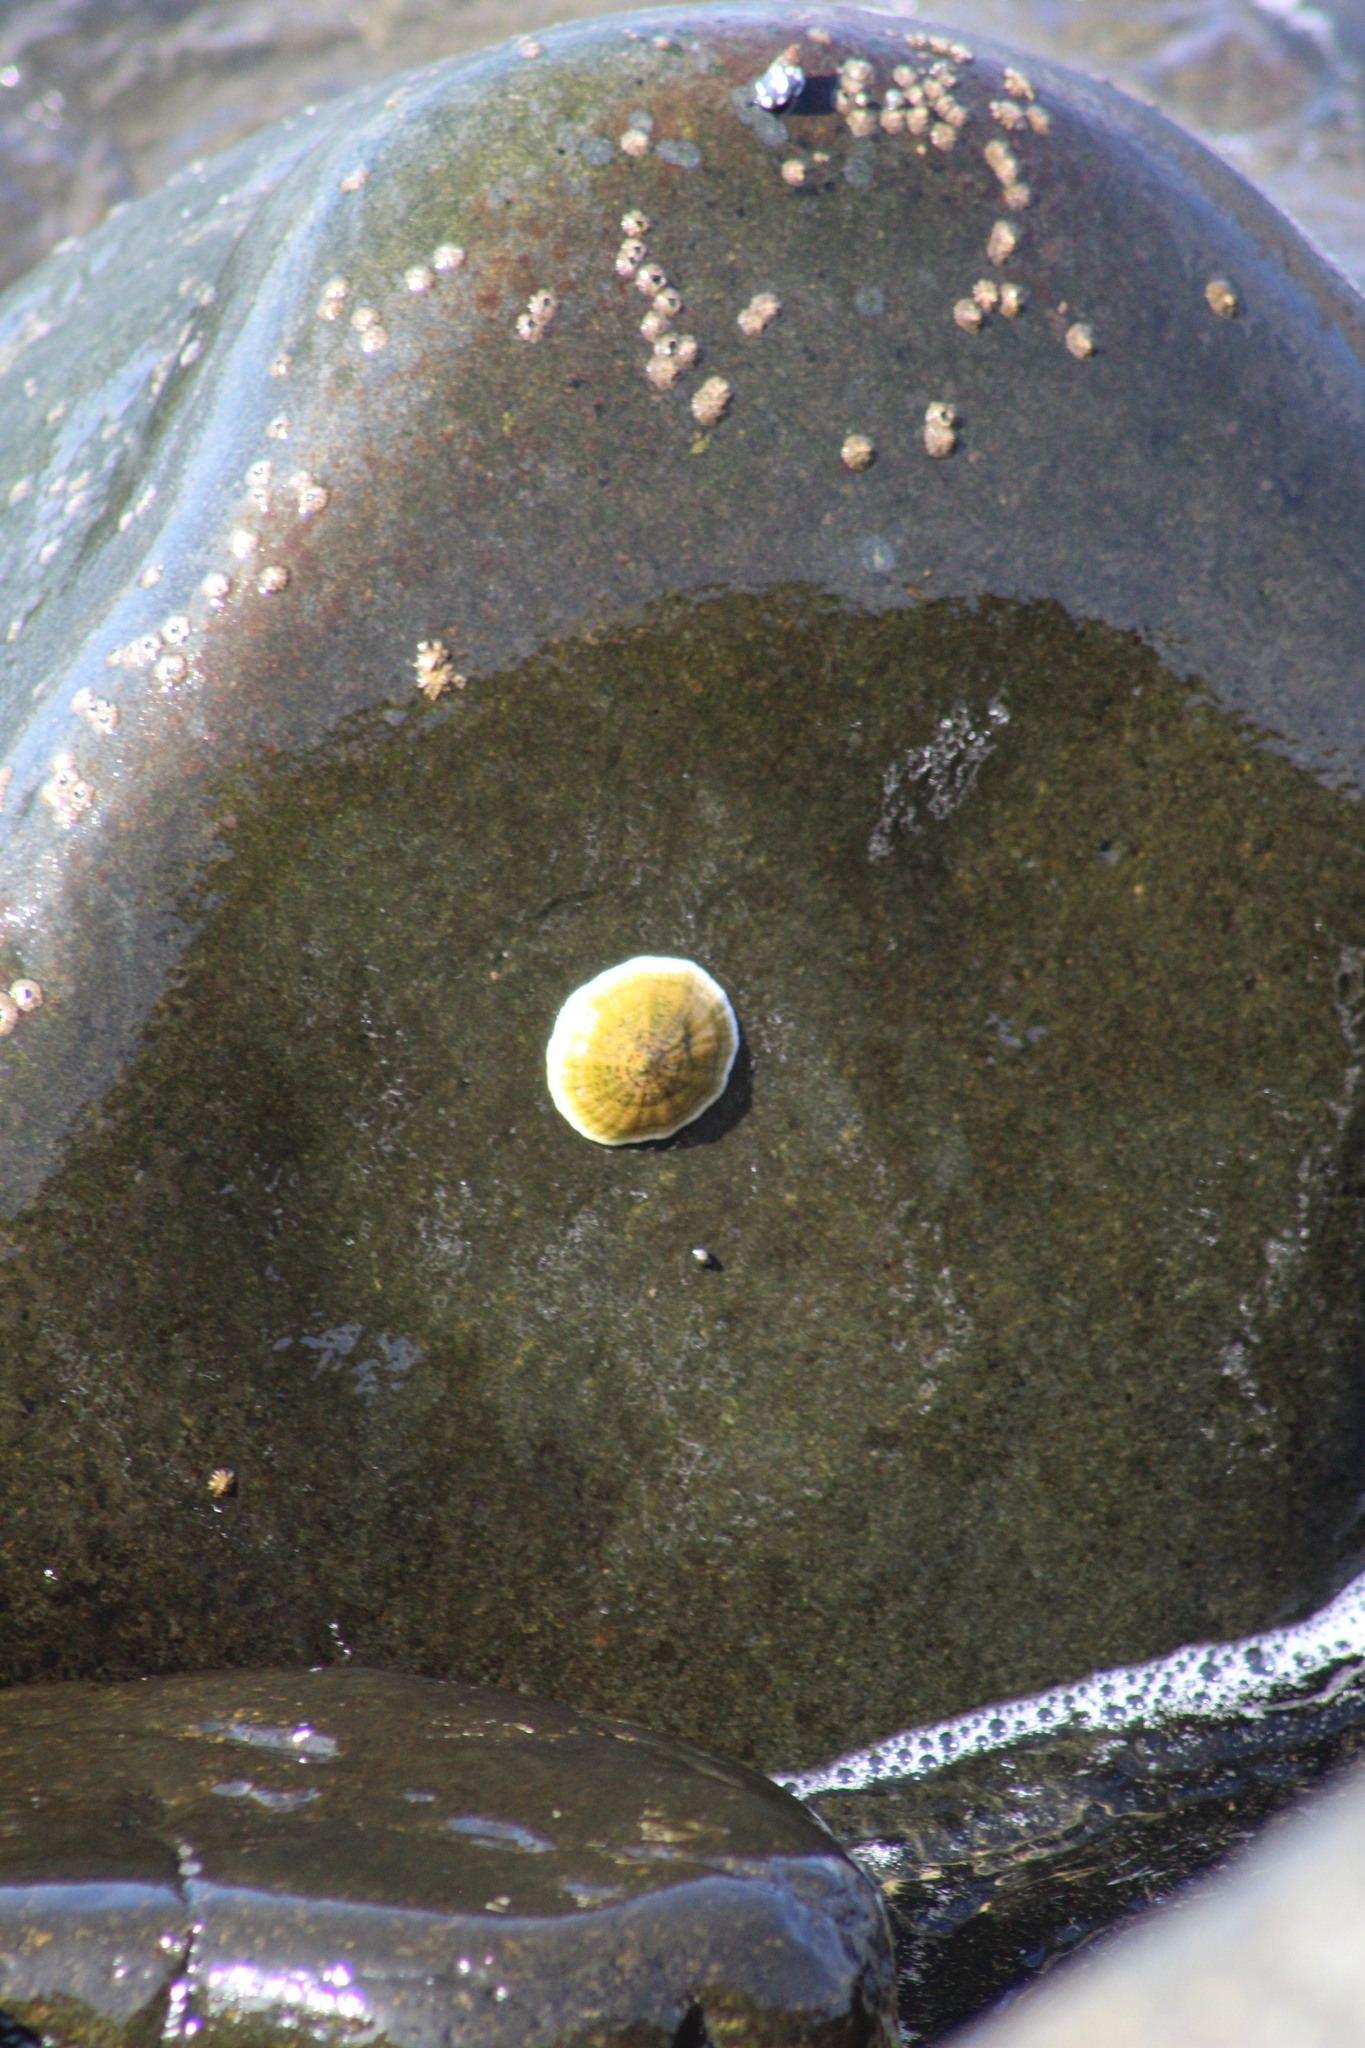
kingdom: Animalia
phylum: Mollusca
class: Gastropoda
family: Lottiidae
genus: Scurria
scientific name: Scurria viridula
